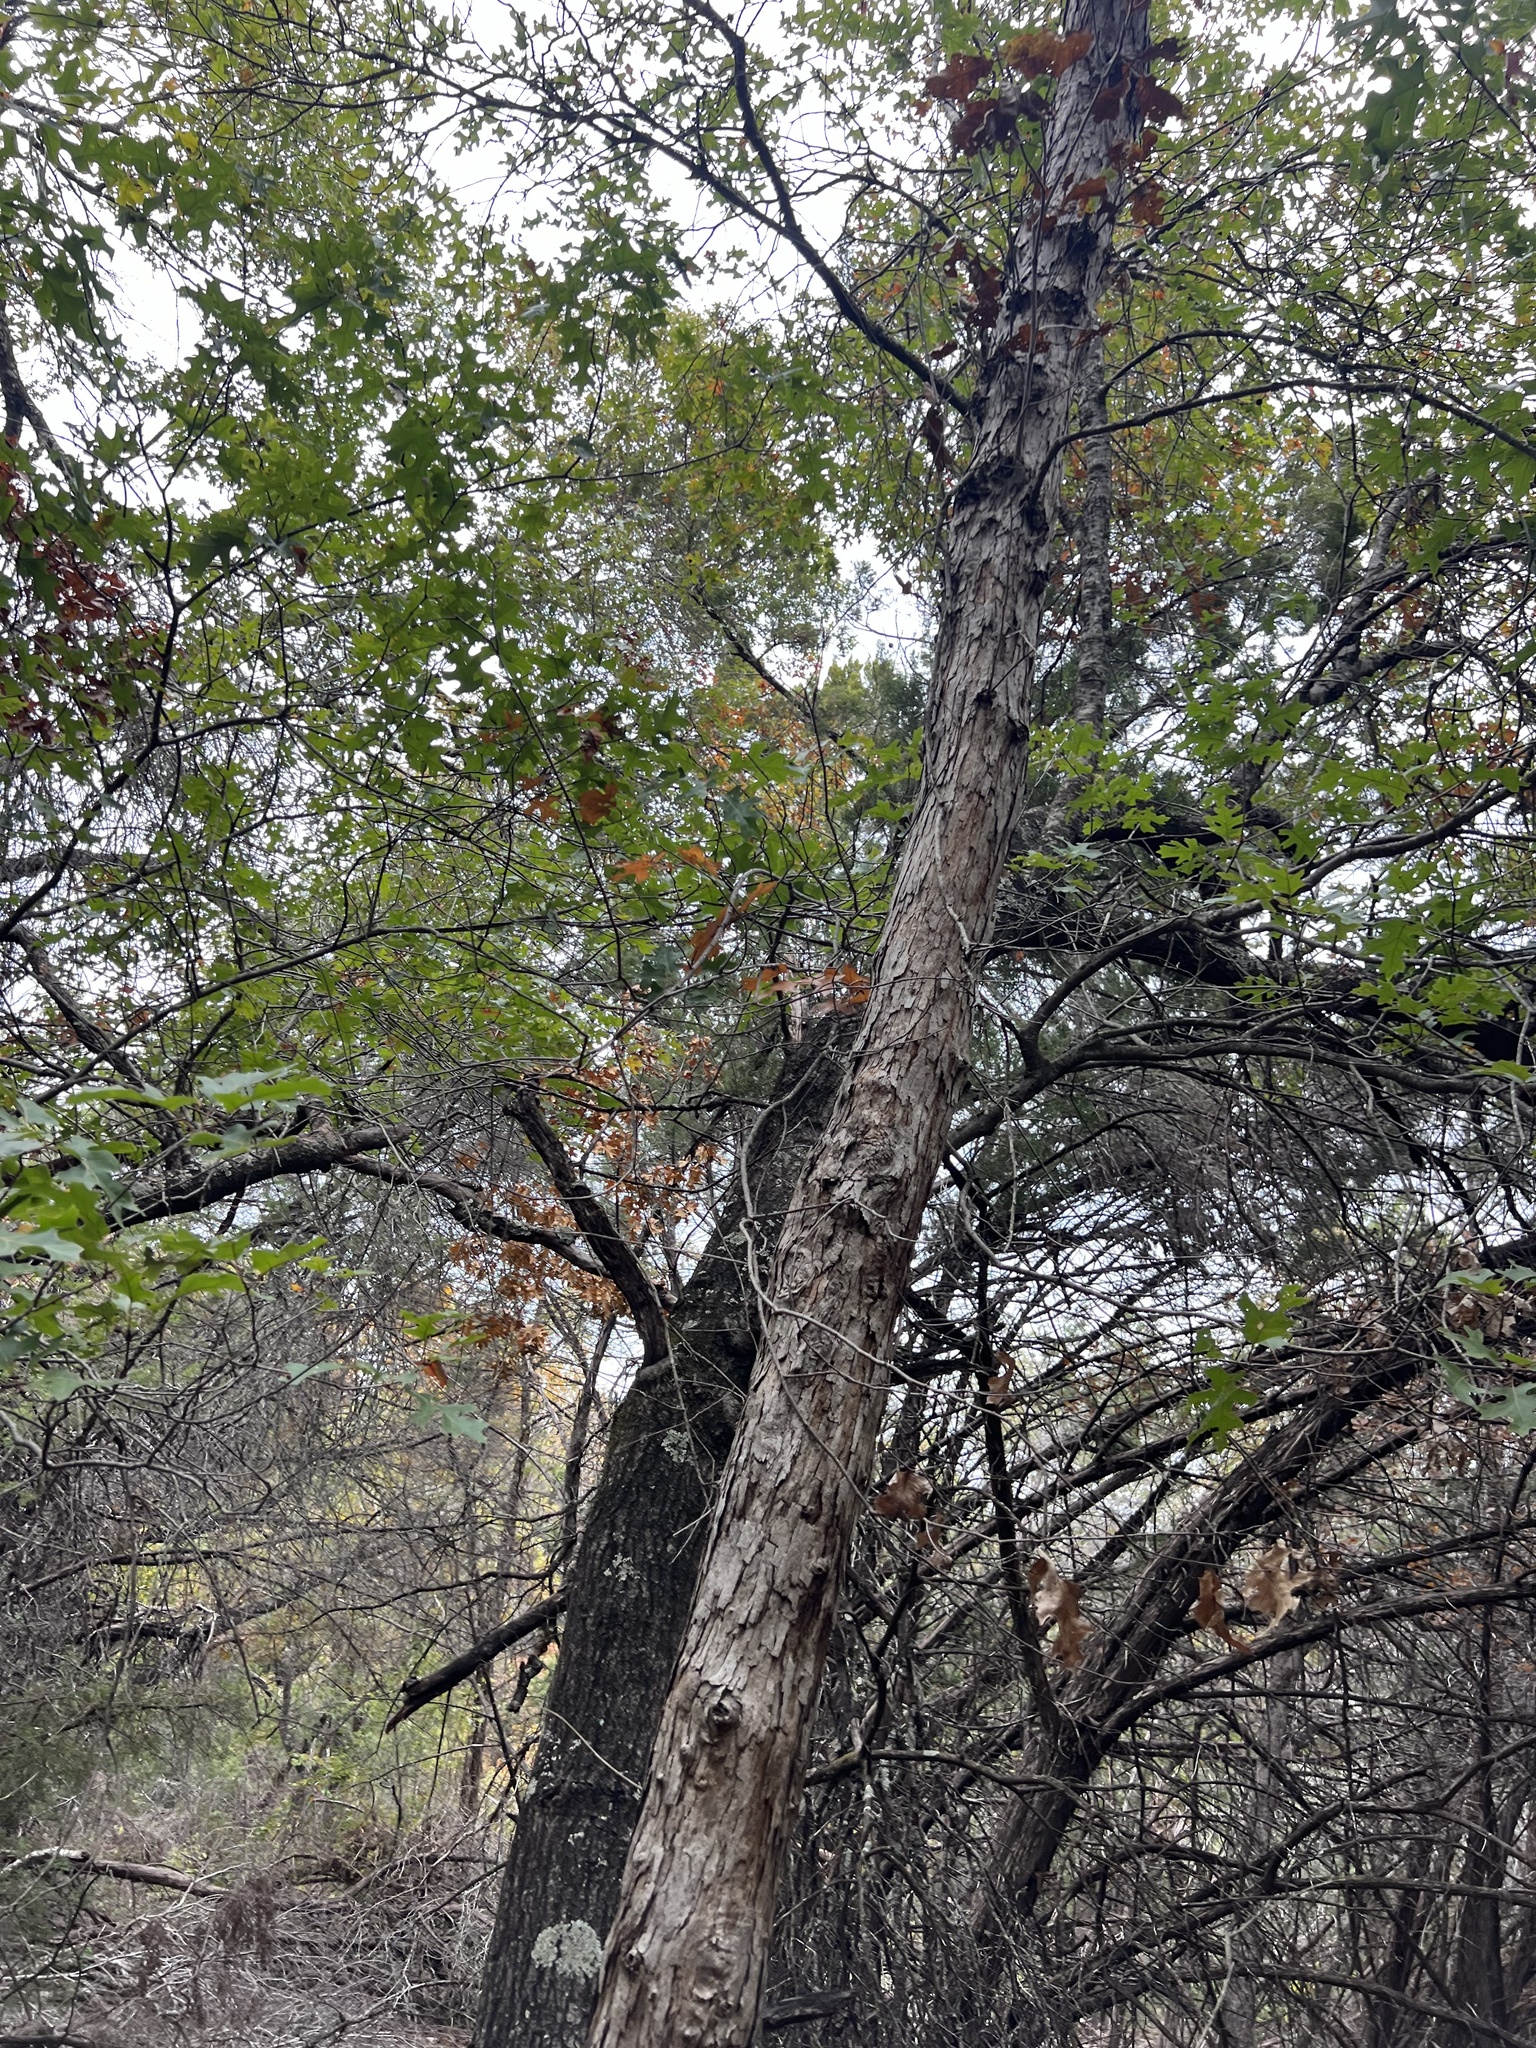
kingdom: Plantae
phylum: Tracheophyta
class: Magnoliopsida
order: Fagales
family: Fagaceae
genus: Quercus
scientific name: Quercus sinuata
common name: Durand oak
